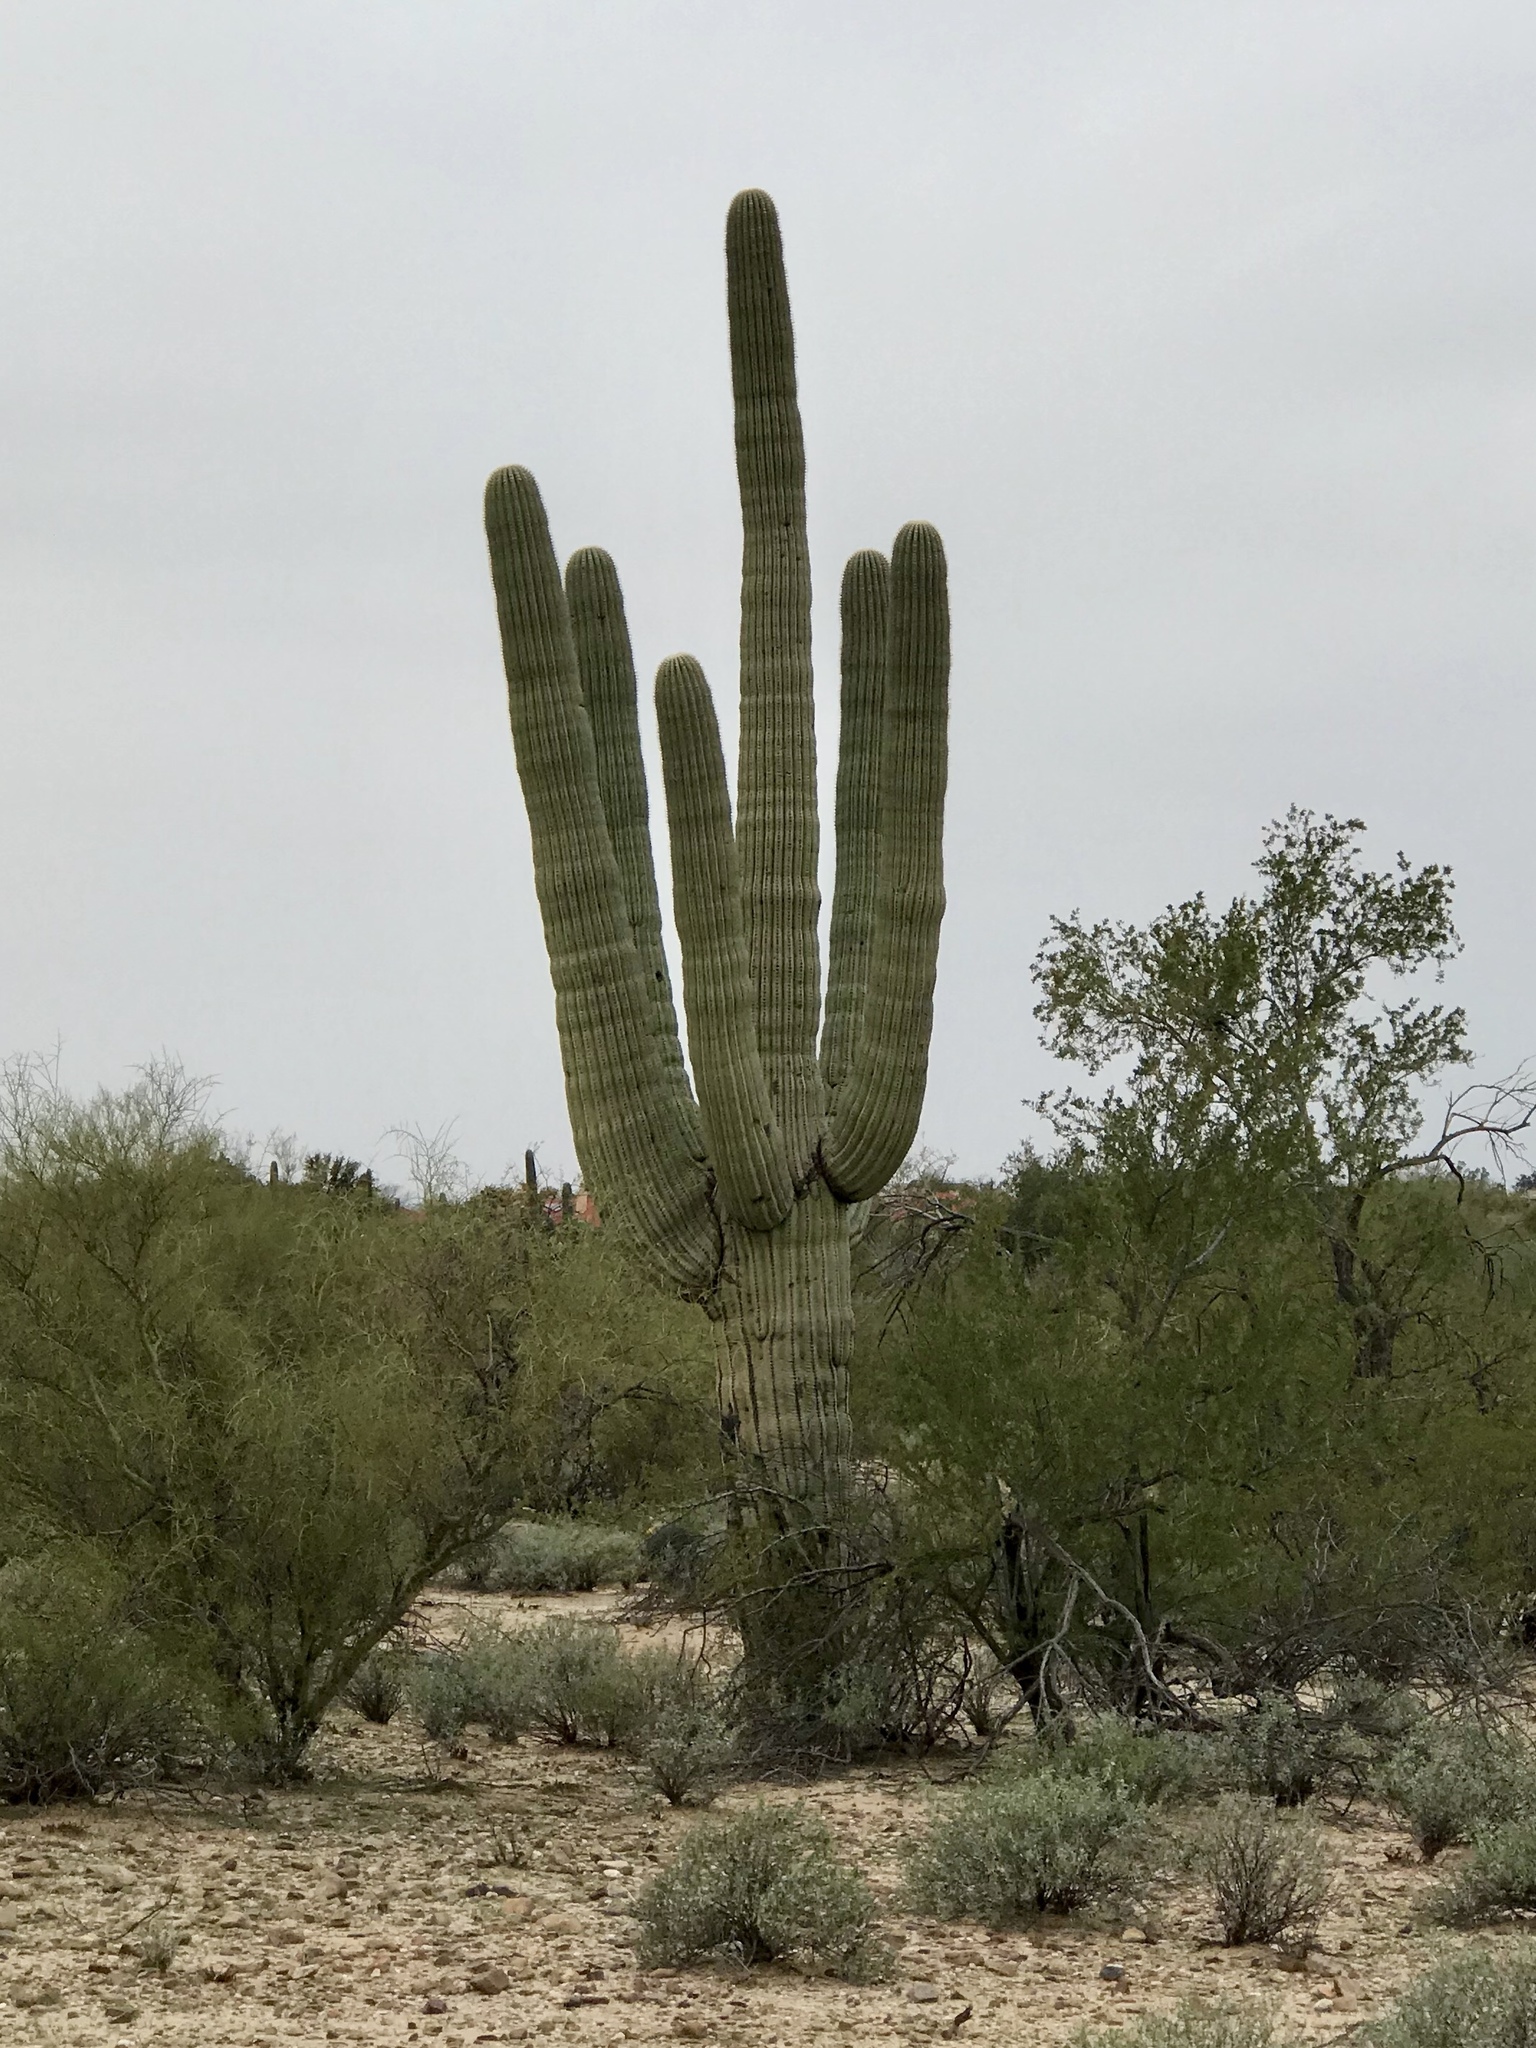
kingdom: Plantae
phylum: Tracheophyta
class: Magnoliopsida
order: Caryophyllales
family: Cactaceae
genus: Carnegiea
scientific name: Carnegiea gigantea
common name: Saguaro
